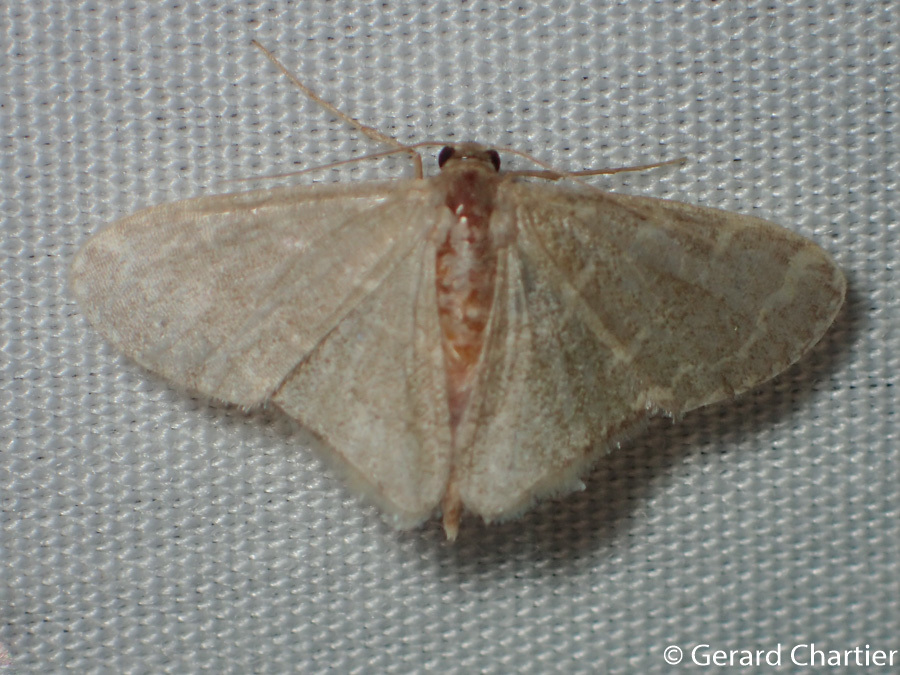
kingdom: Animalia
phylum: Arthropoda
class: Insecta
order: Lepidoptera
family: Geometridae
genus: Lophophleps
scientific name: Lophophleps triangularis
